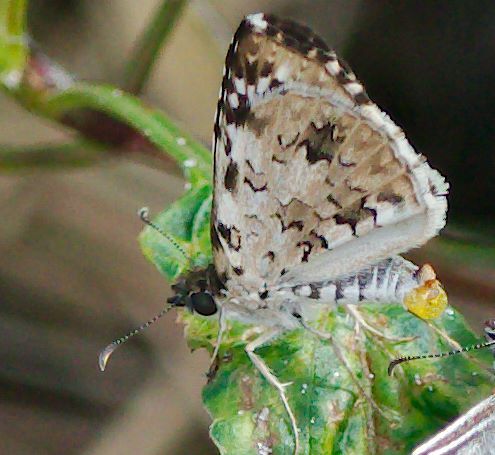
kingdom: Animalia
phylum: Arthropoda
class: Insecta
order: Lepidoptera
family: Hesperiidae
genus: Pyrgus
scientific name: Pyrgus oileus
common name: Tropical checkered-skipper
